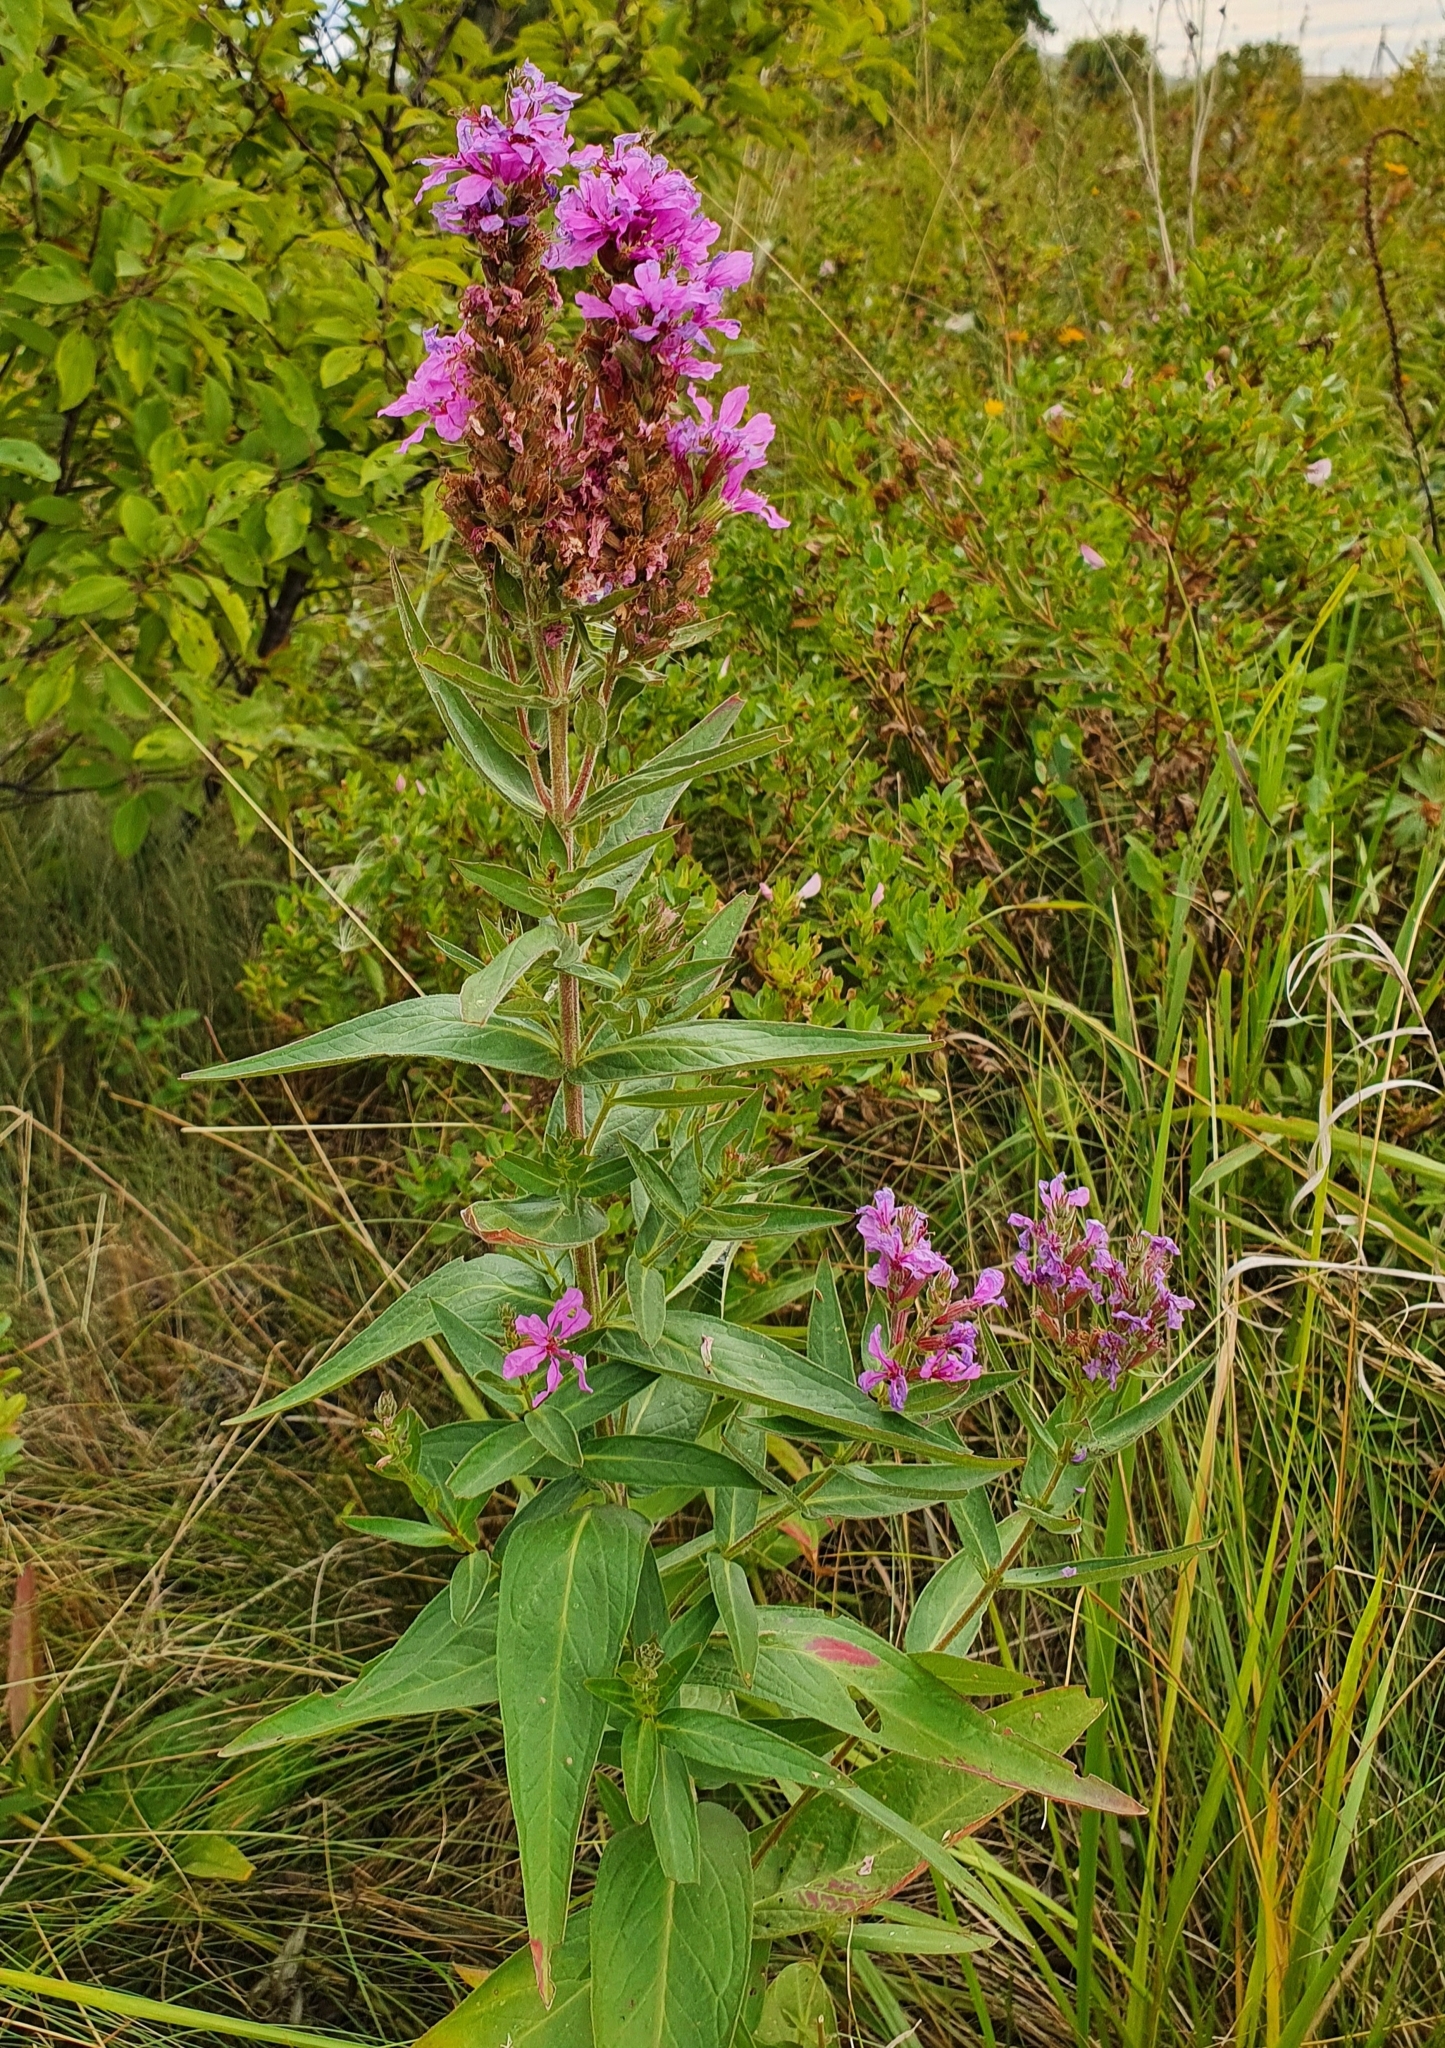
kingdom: Plantae
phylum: Tracheophyta
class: Magnoliopsida
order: Myrtales
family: Lythraceae
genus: Lythrum
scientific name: Lythrum salicaria
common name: Purple loosestrife
